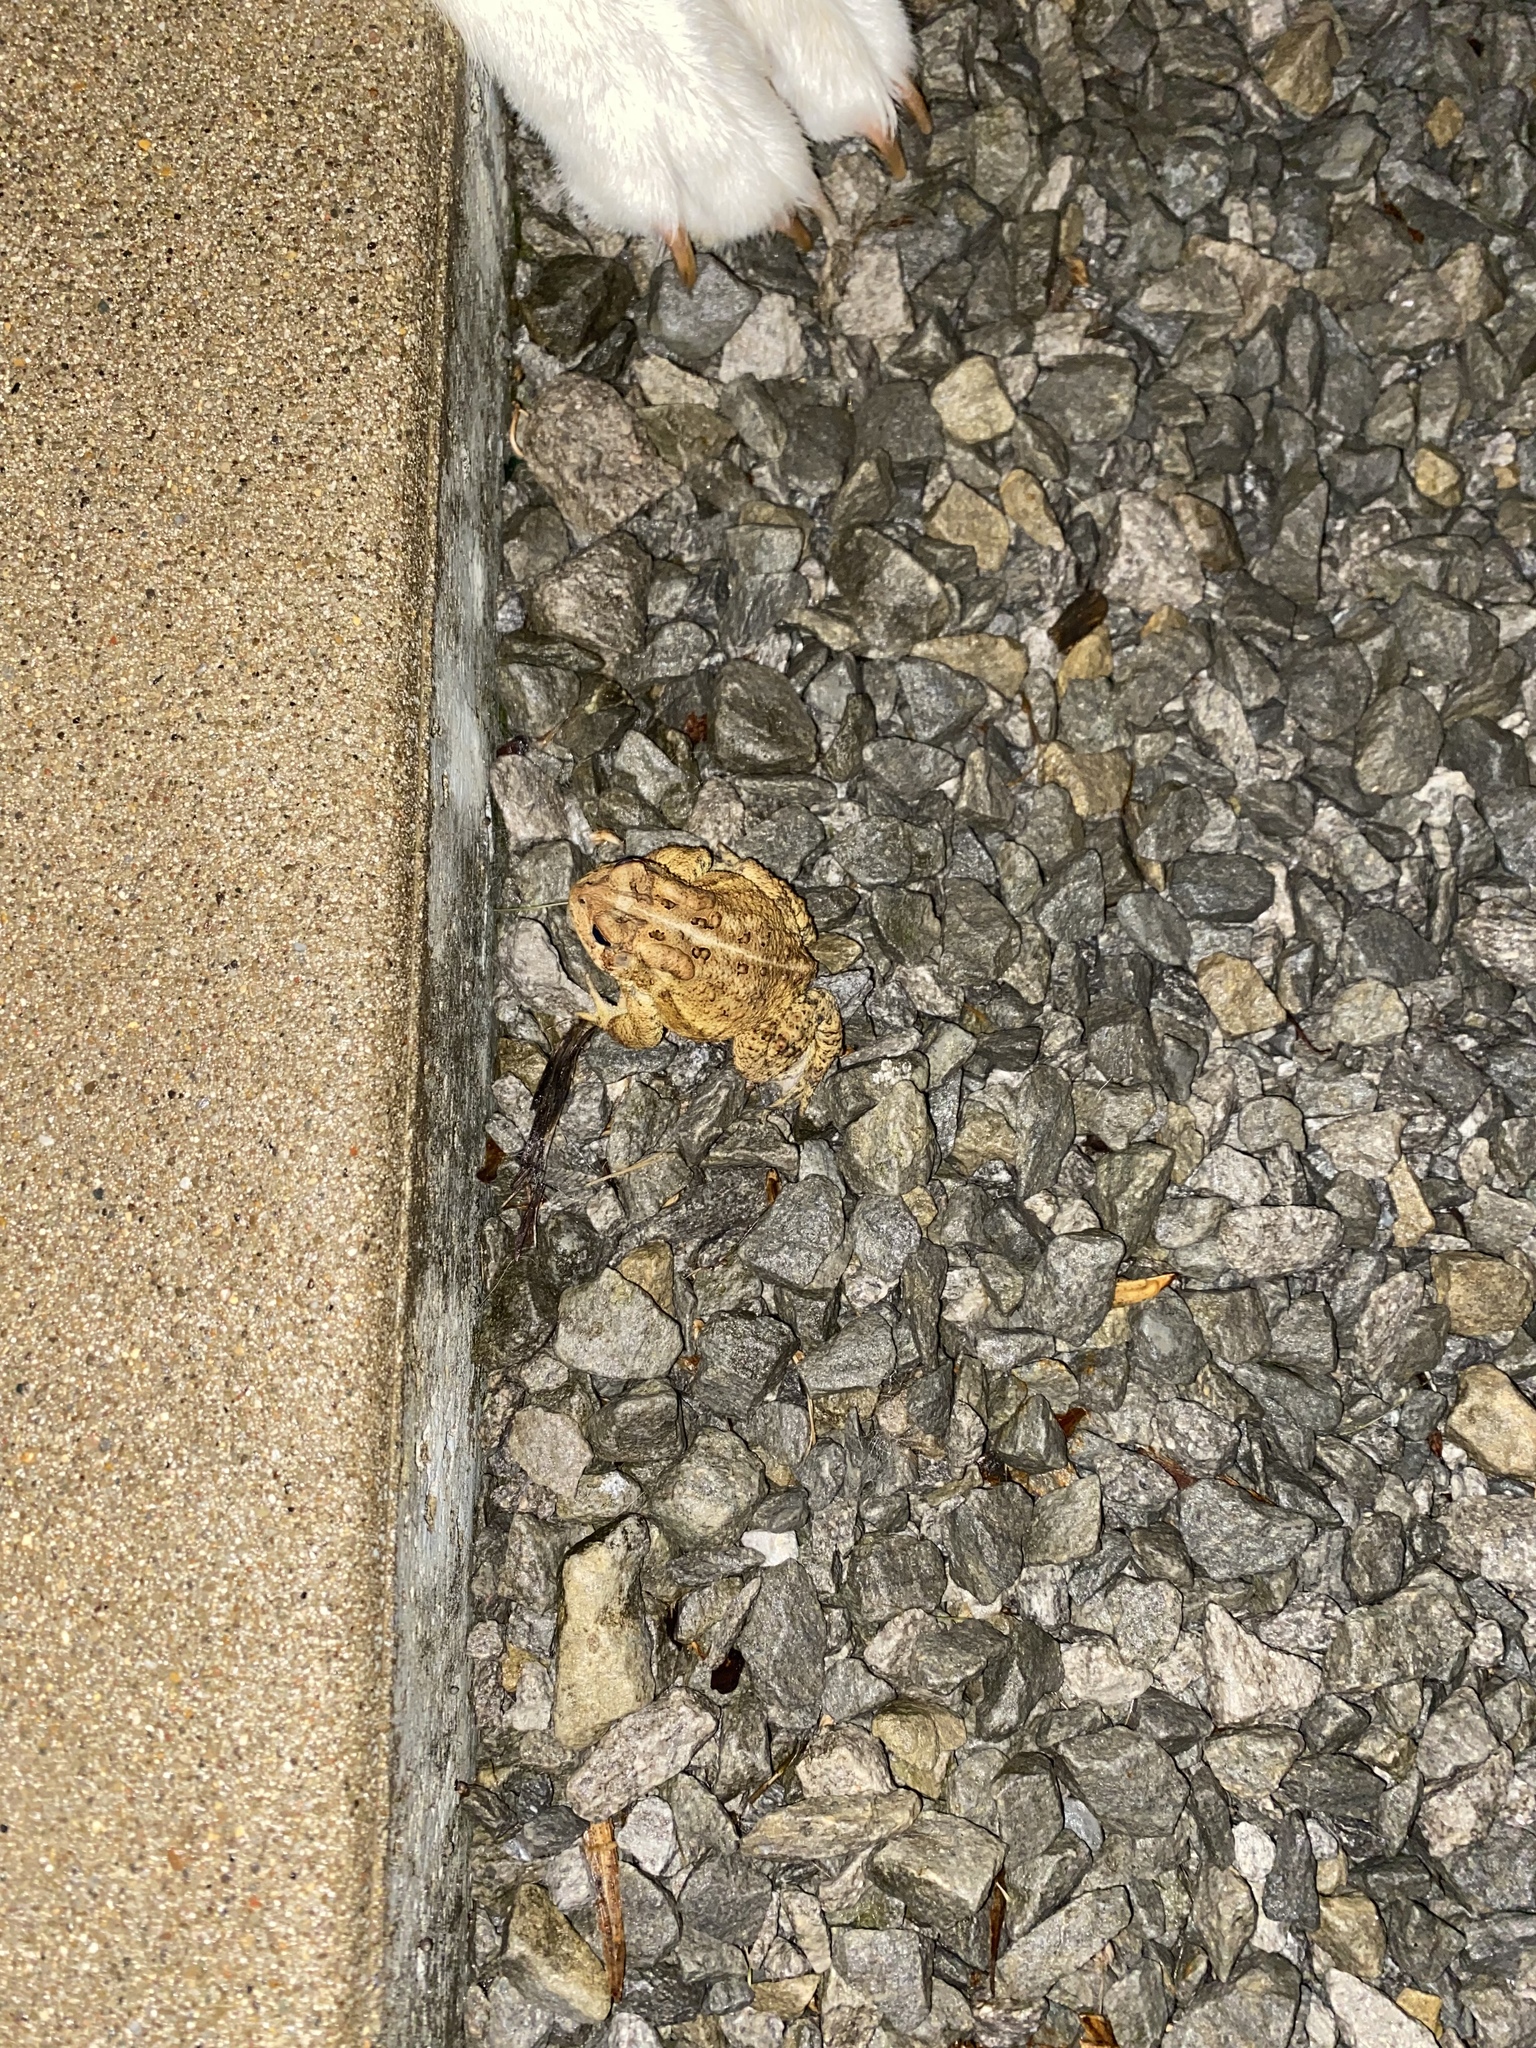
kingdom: Animalia
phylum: Chordata
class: Amphibia
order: Anura
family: Bufonidae
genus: Anaxyrus
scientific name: Anaxyrus americanus
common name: American toad
